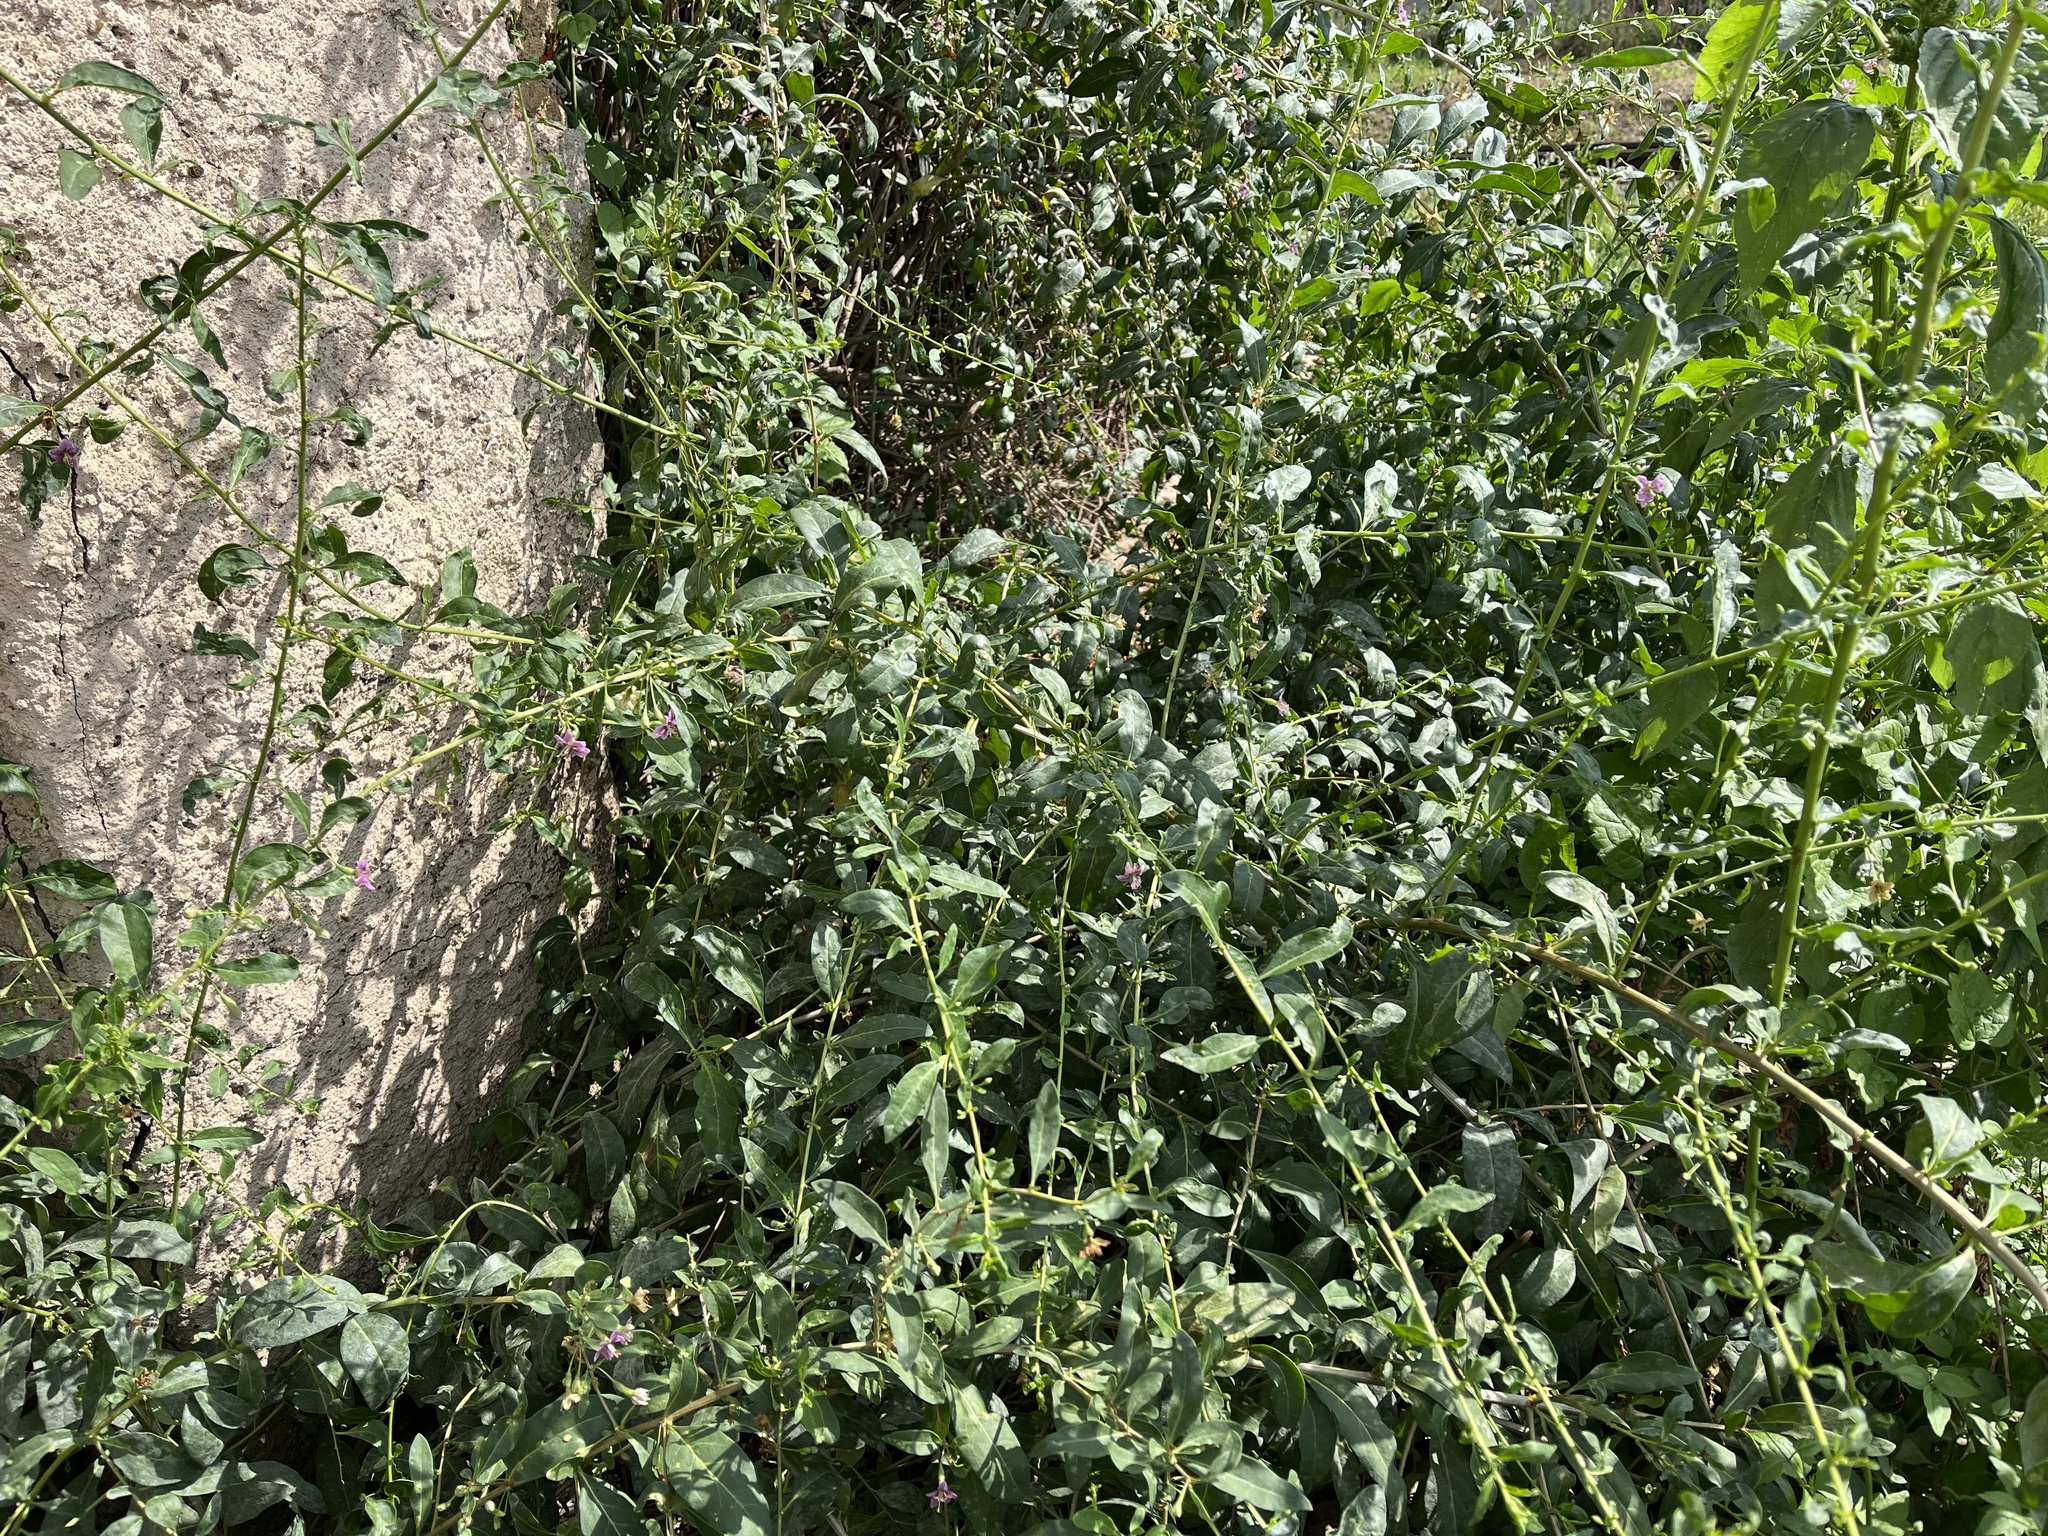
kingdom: Plantae
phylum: Tracheophyta
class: Magnoliopsida
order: Solanales
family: Solanaceae
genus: Lycium
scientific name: Lycium barbarum
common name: Duke of argyll's teaplant
